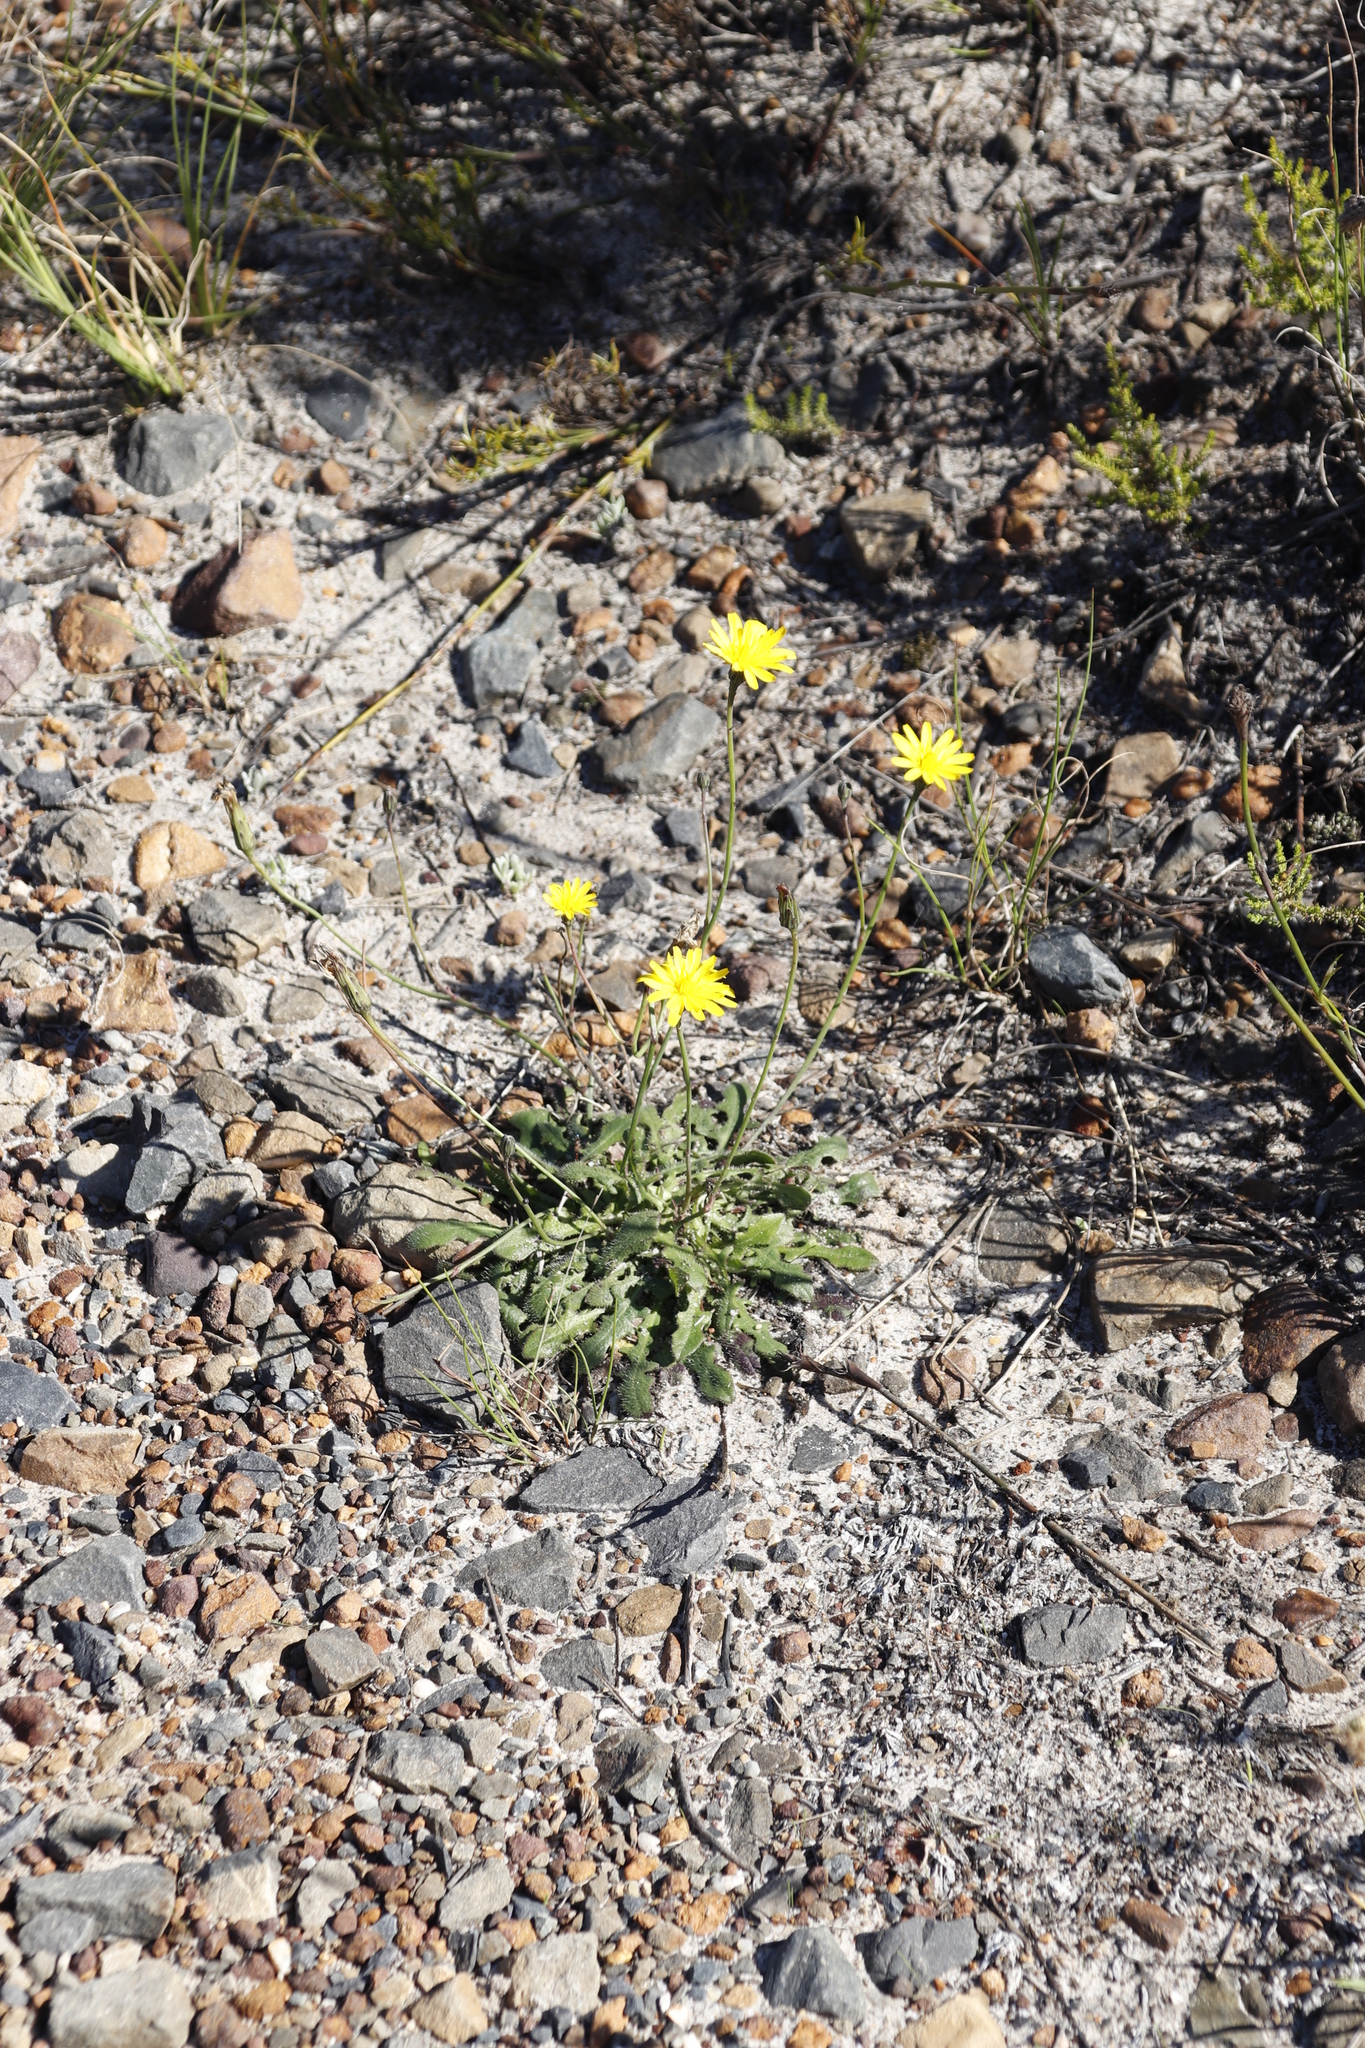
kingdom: Plantae
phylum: Tracheophyta
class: Magnoliopsida
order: Asterales
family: Asteraceae
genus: Hypochaeris
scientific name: Hypochaeris radicata
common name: Flatweed
